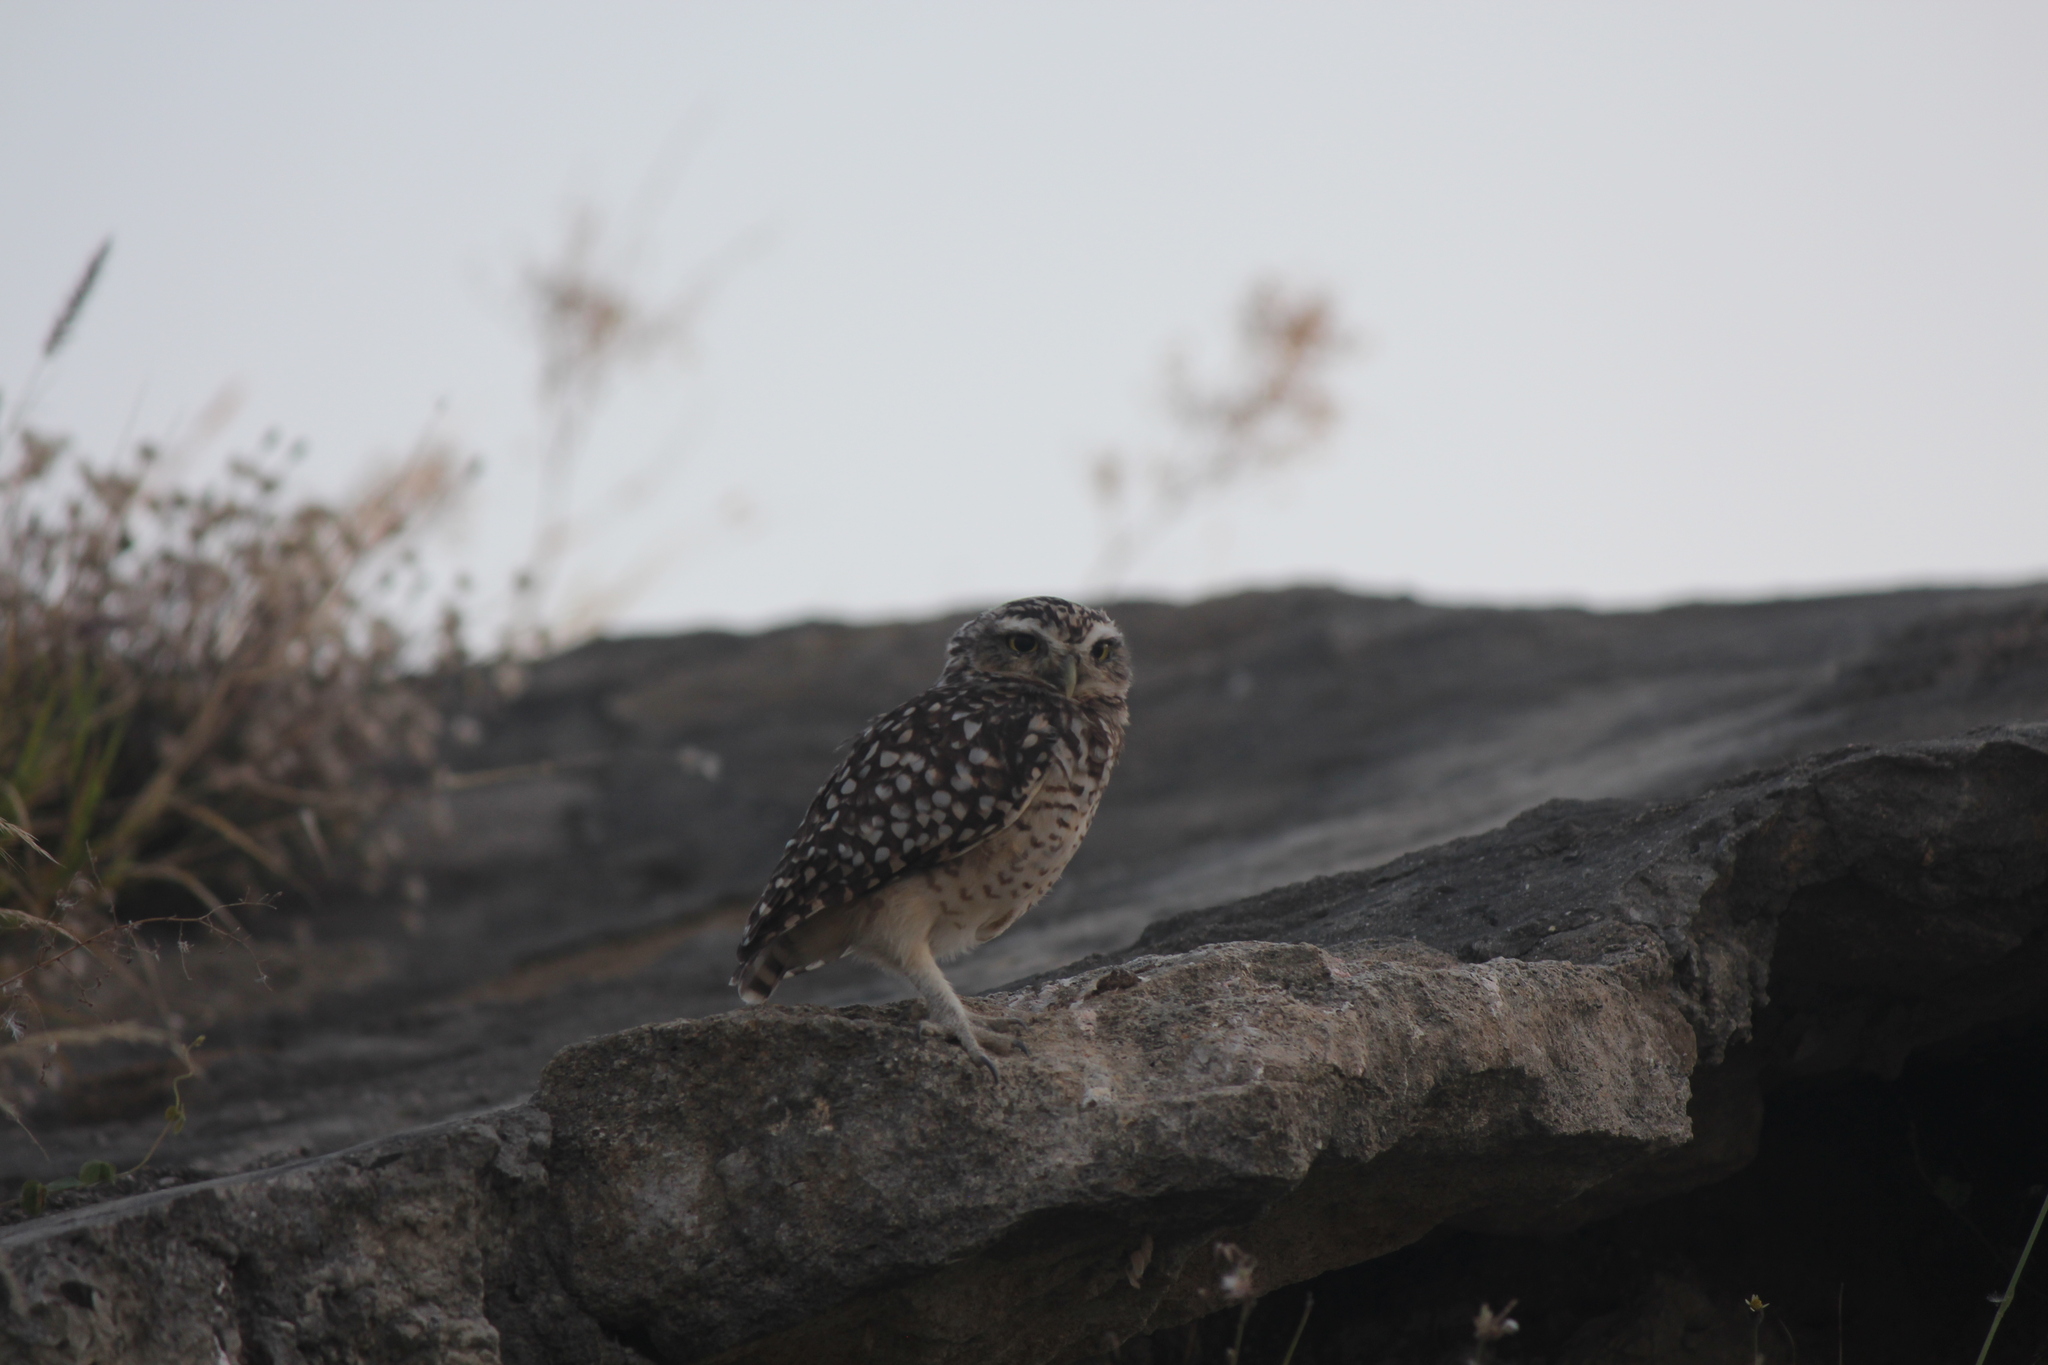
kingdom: Animalia
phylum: Chordata
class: Aves
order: Strigiformes
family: Strigidae
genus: Athene
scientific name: Athene cunicularia
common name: Burrowing owl
